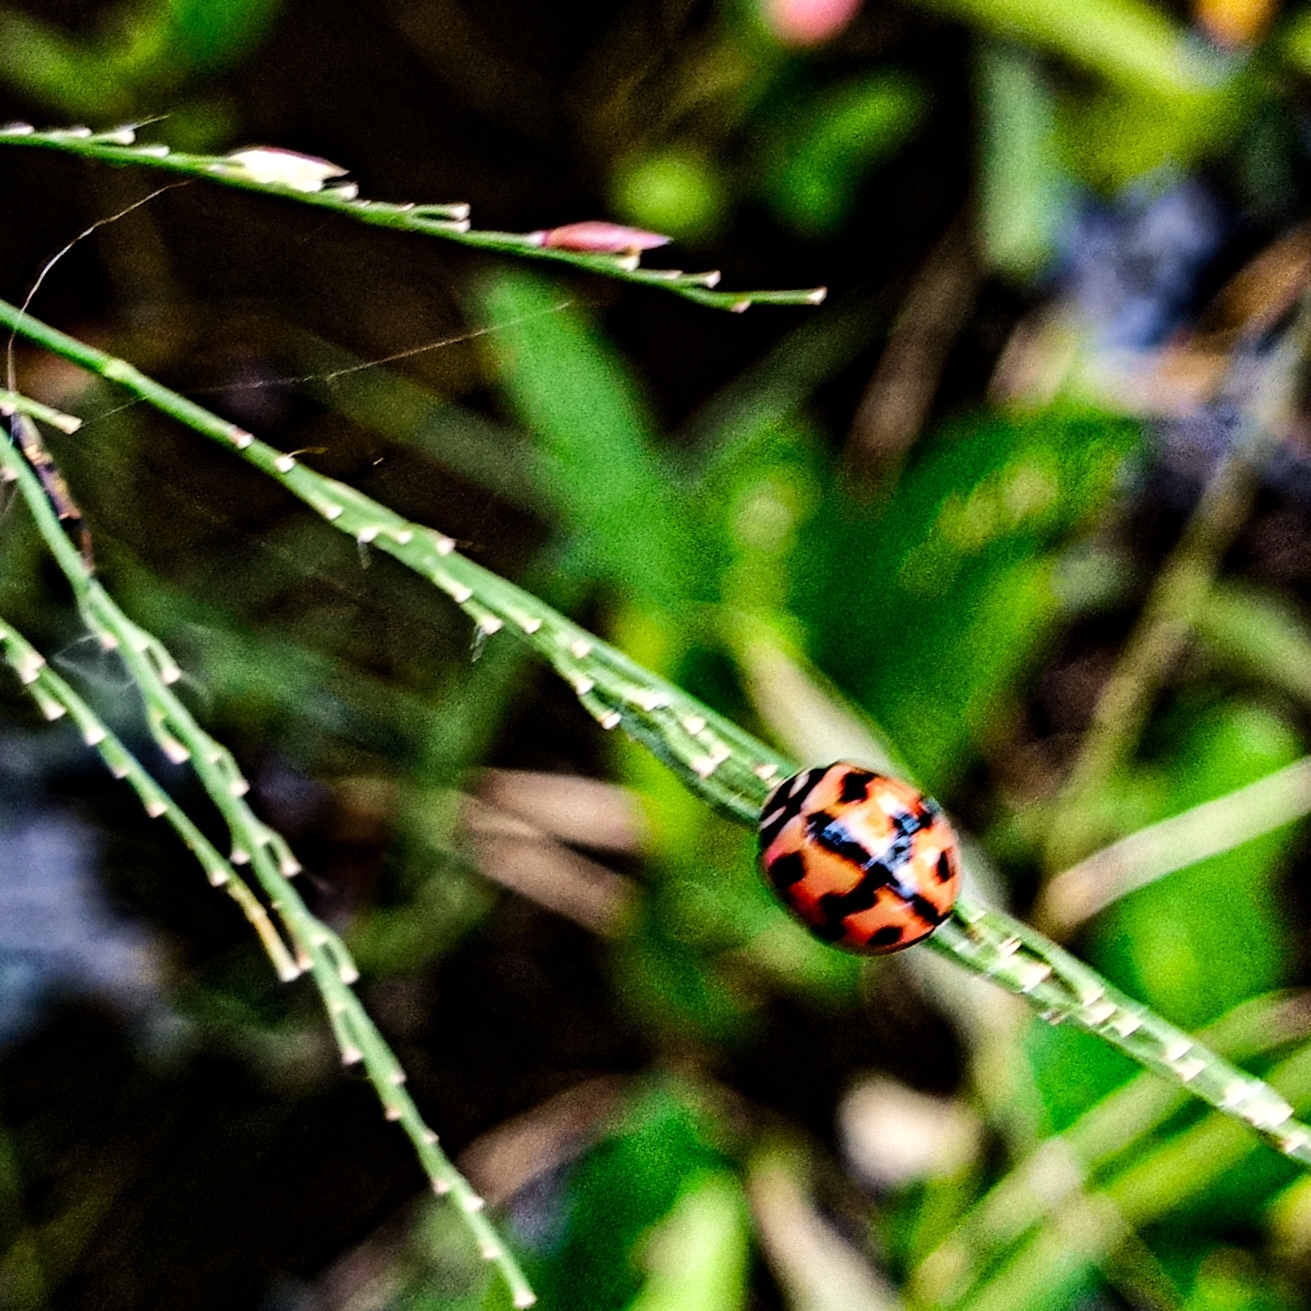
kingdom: Animalia
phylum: Arthropoda
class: Insecta
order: Coleoptera
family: Coccinellidae
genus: Cheilomenes
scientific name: Cheilomenes sexmaculata
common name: Ladybird beetle
